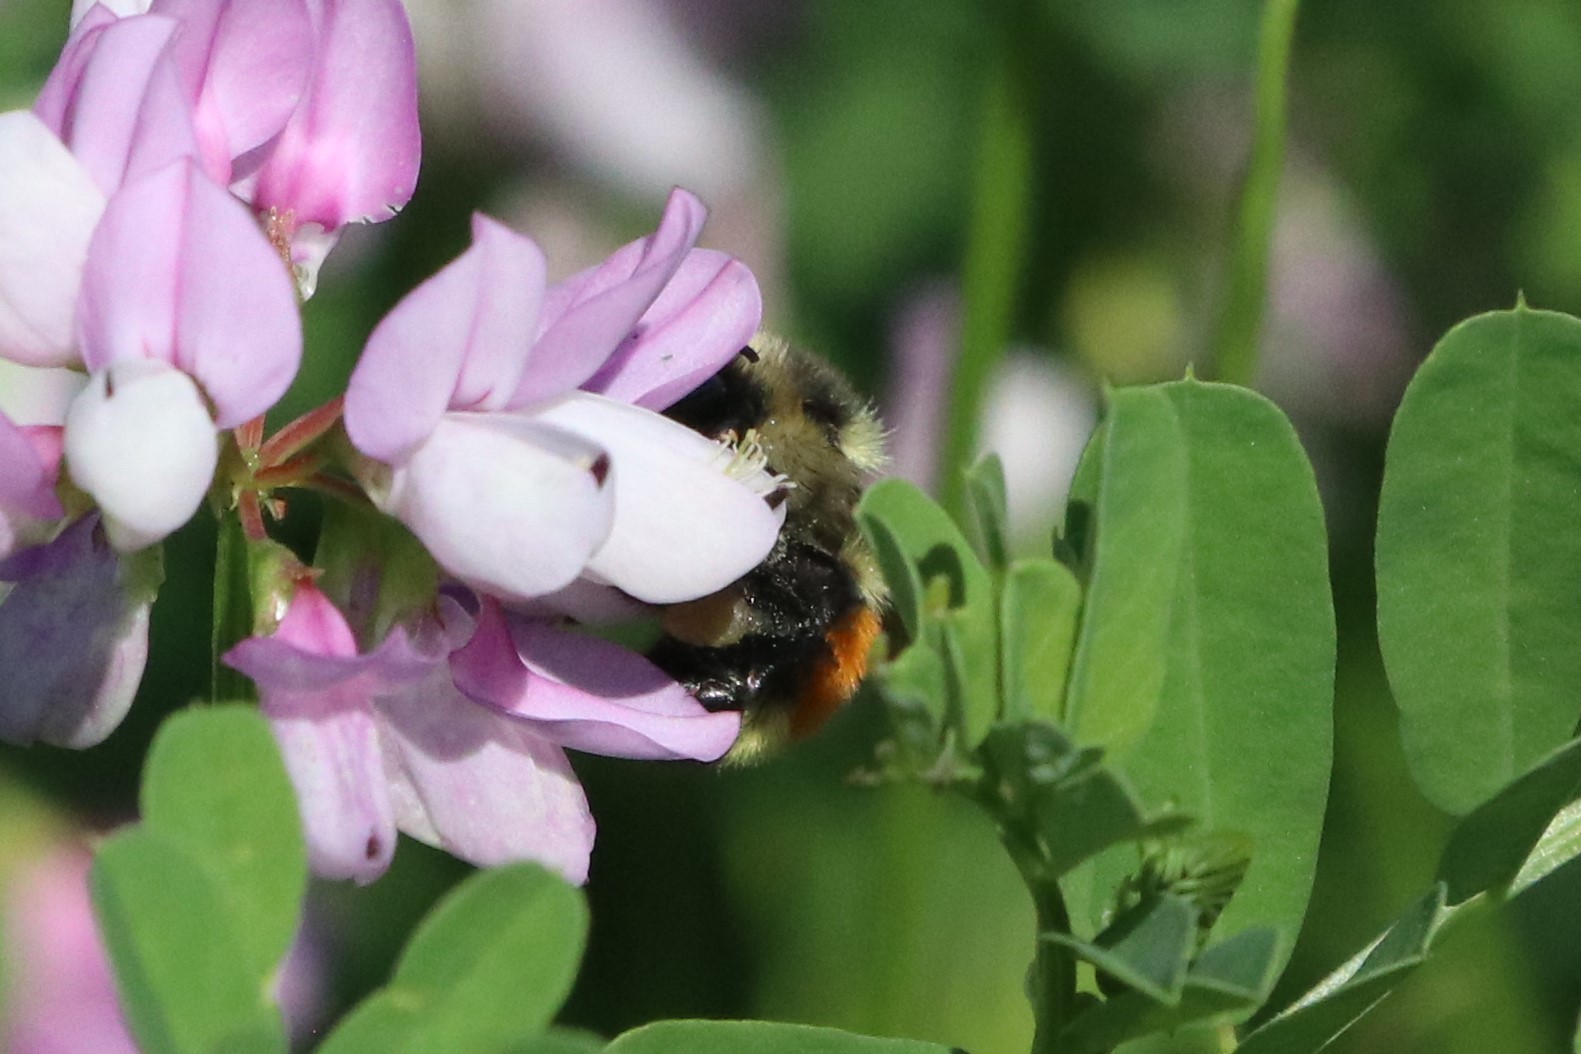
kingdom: Animalia
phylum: Arthropoda
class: Insecta
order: Hymenoptera
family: Apidae
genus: Bombus
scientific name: Bombus ternarius
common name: Tri-colored bumble bee
